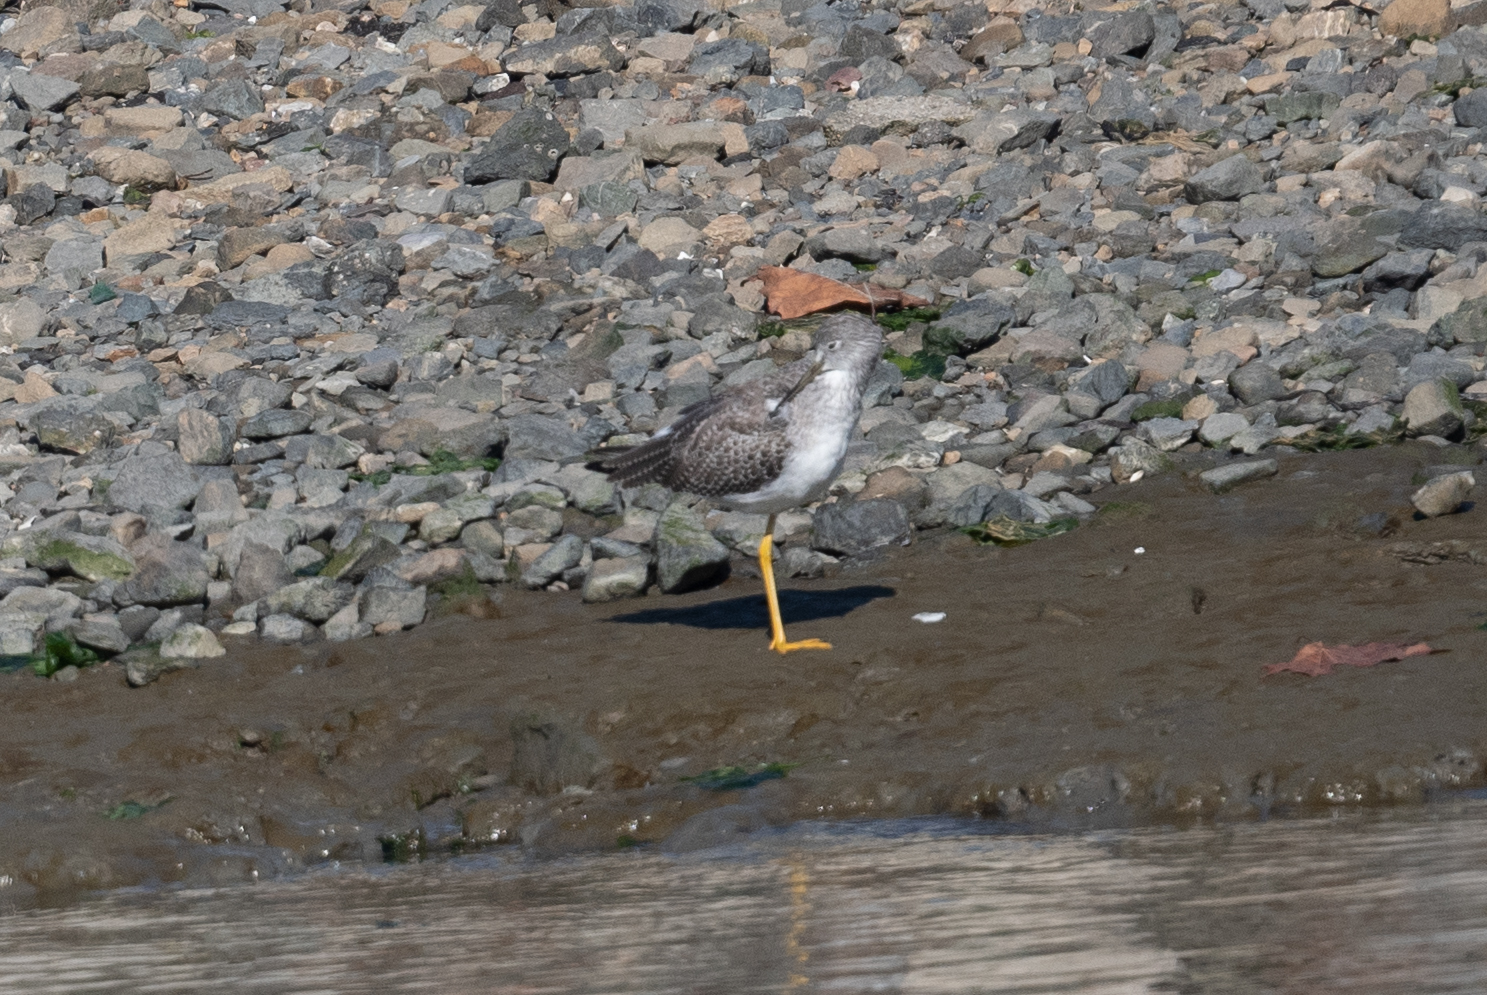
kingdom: Animalia
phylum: Chordata
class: Aves
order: Charadriiformes
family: Scolopacidae
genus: Tringa
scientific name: Tringa melanoleuca
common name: Greater yellowlegs
